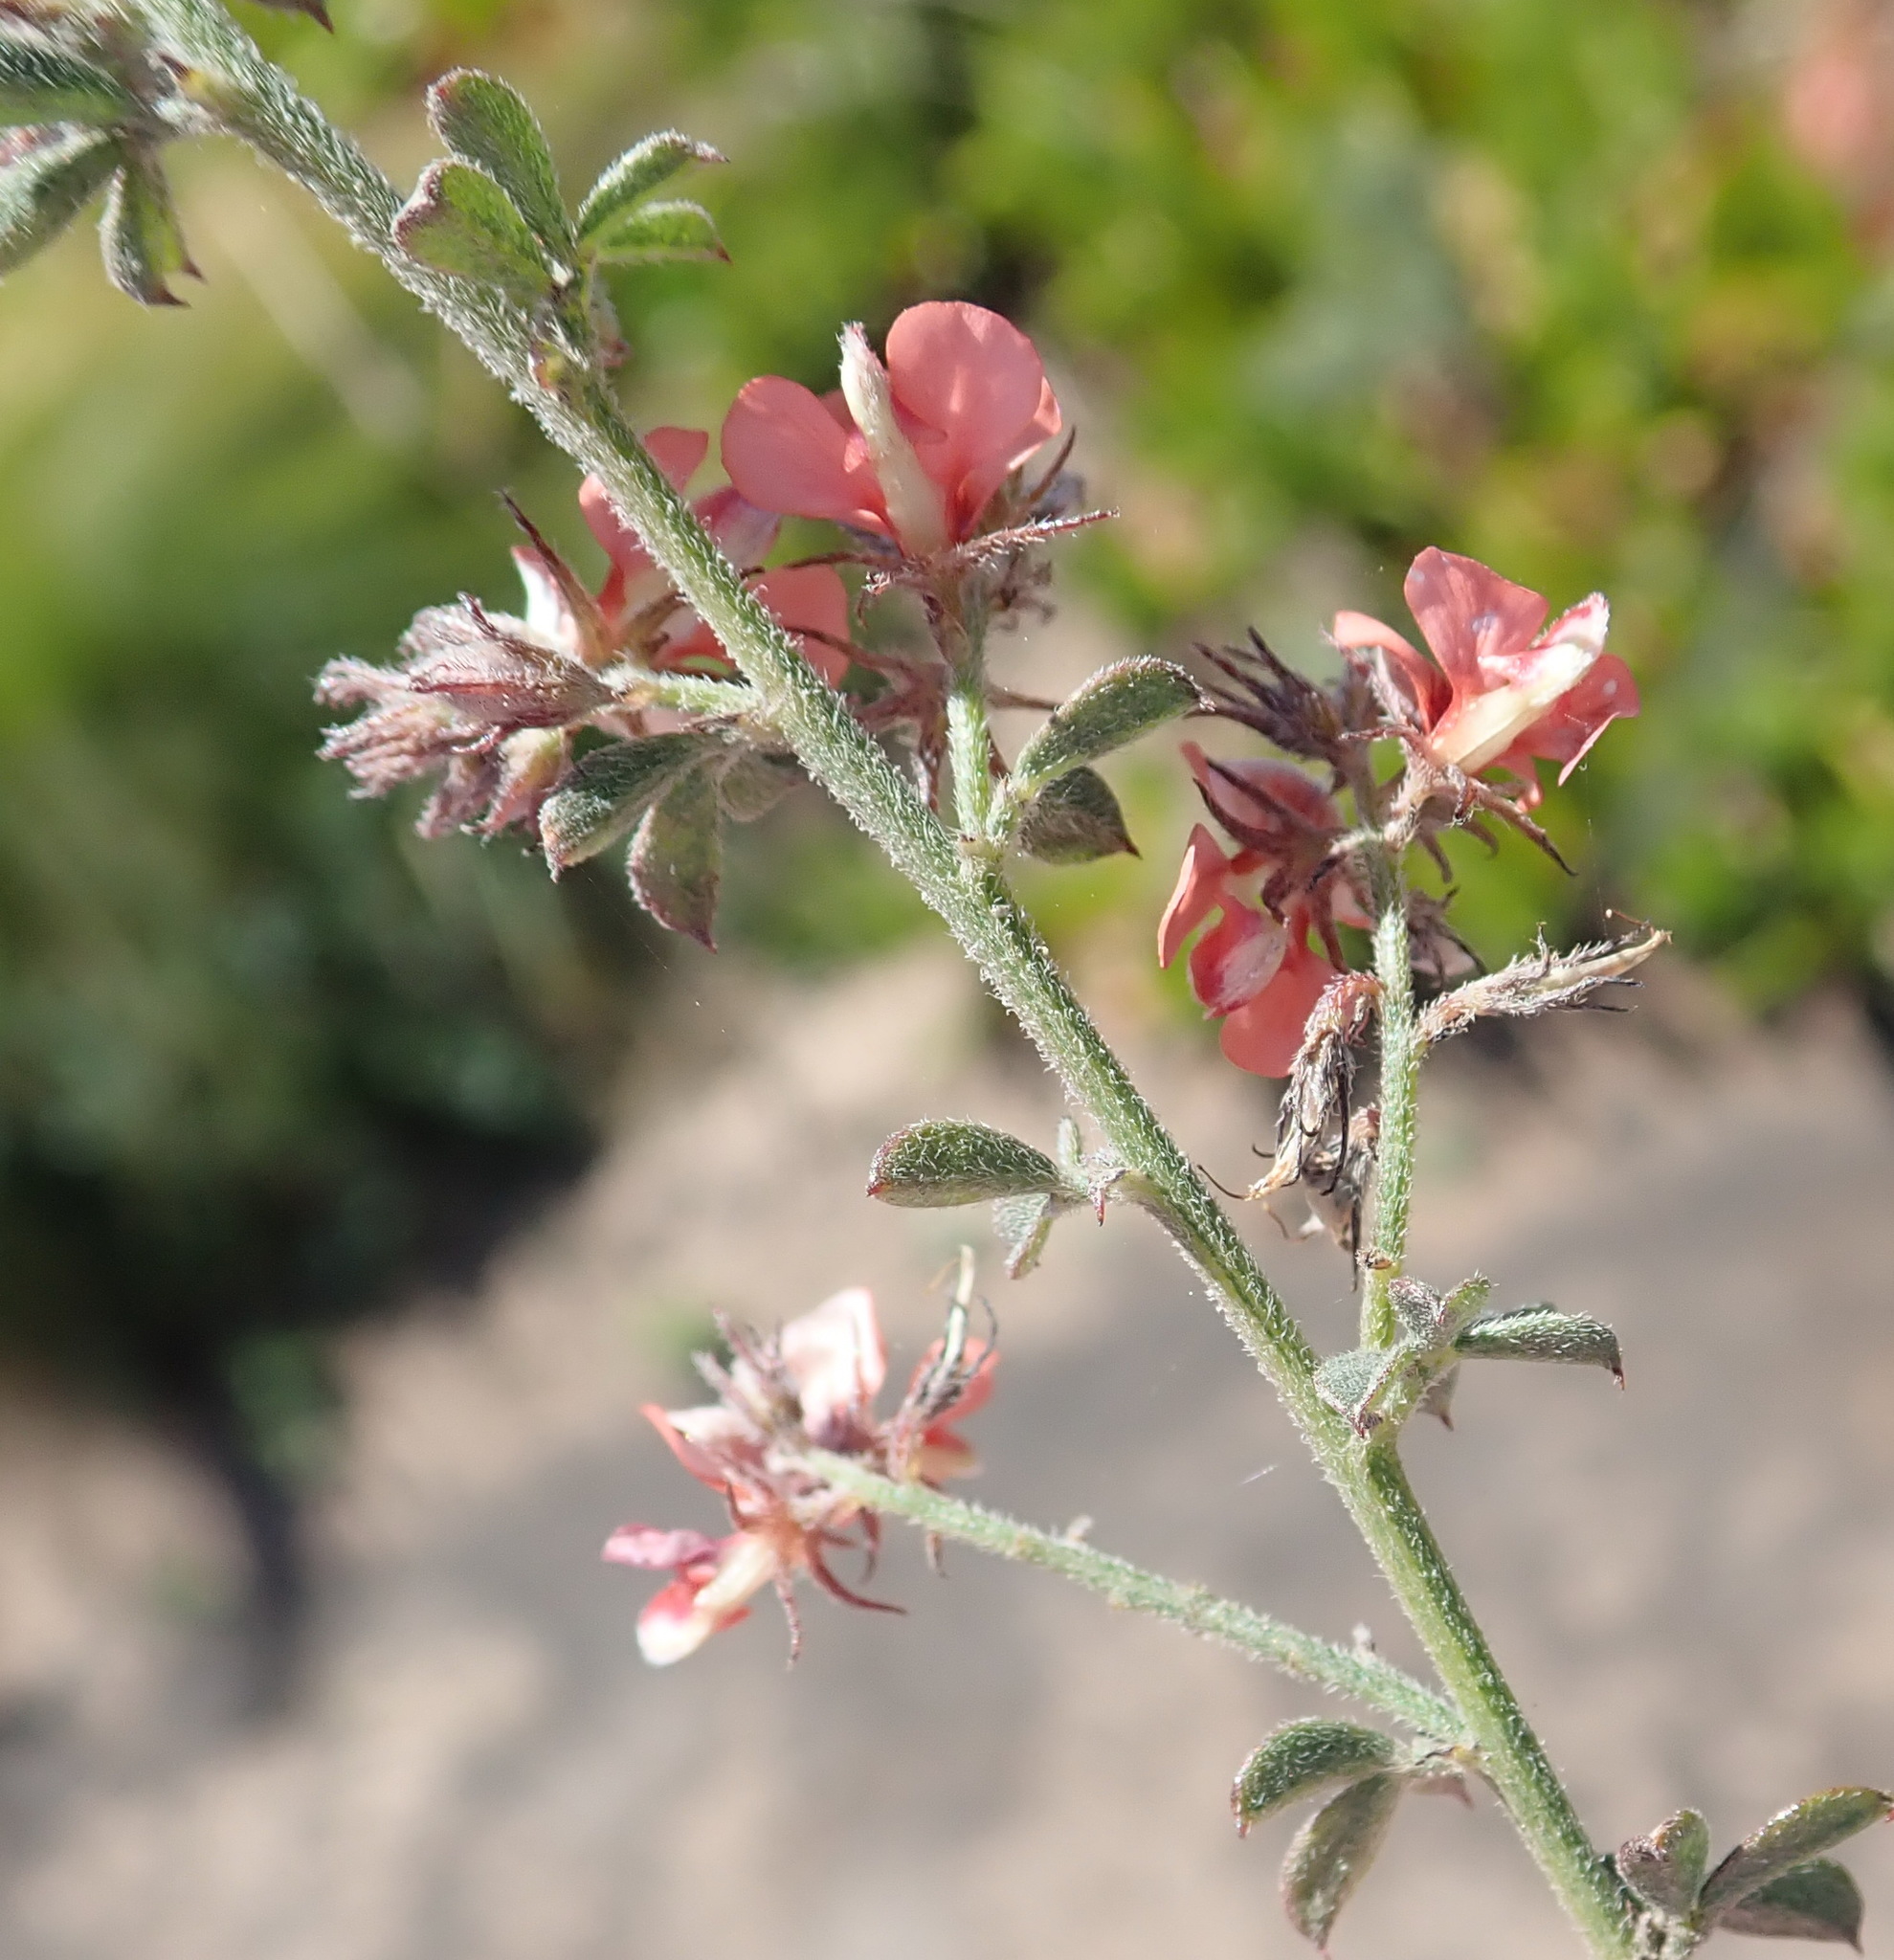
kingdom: Plantae
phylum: Tracheophyta
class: Magnoliopsida
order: Fabales
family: Fabaceae
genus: Indigofera
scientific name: Indigofera priorii
